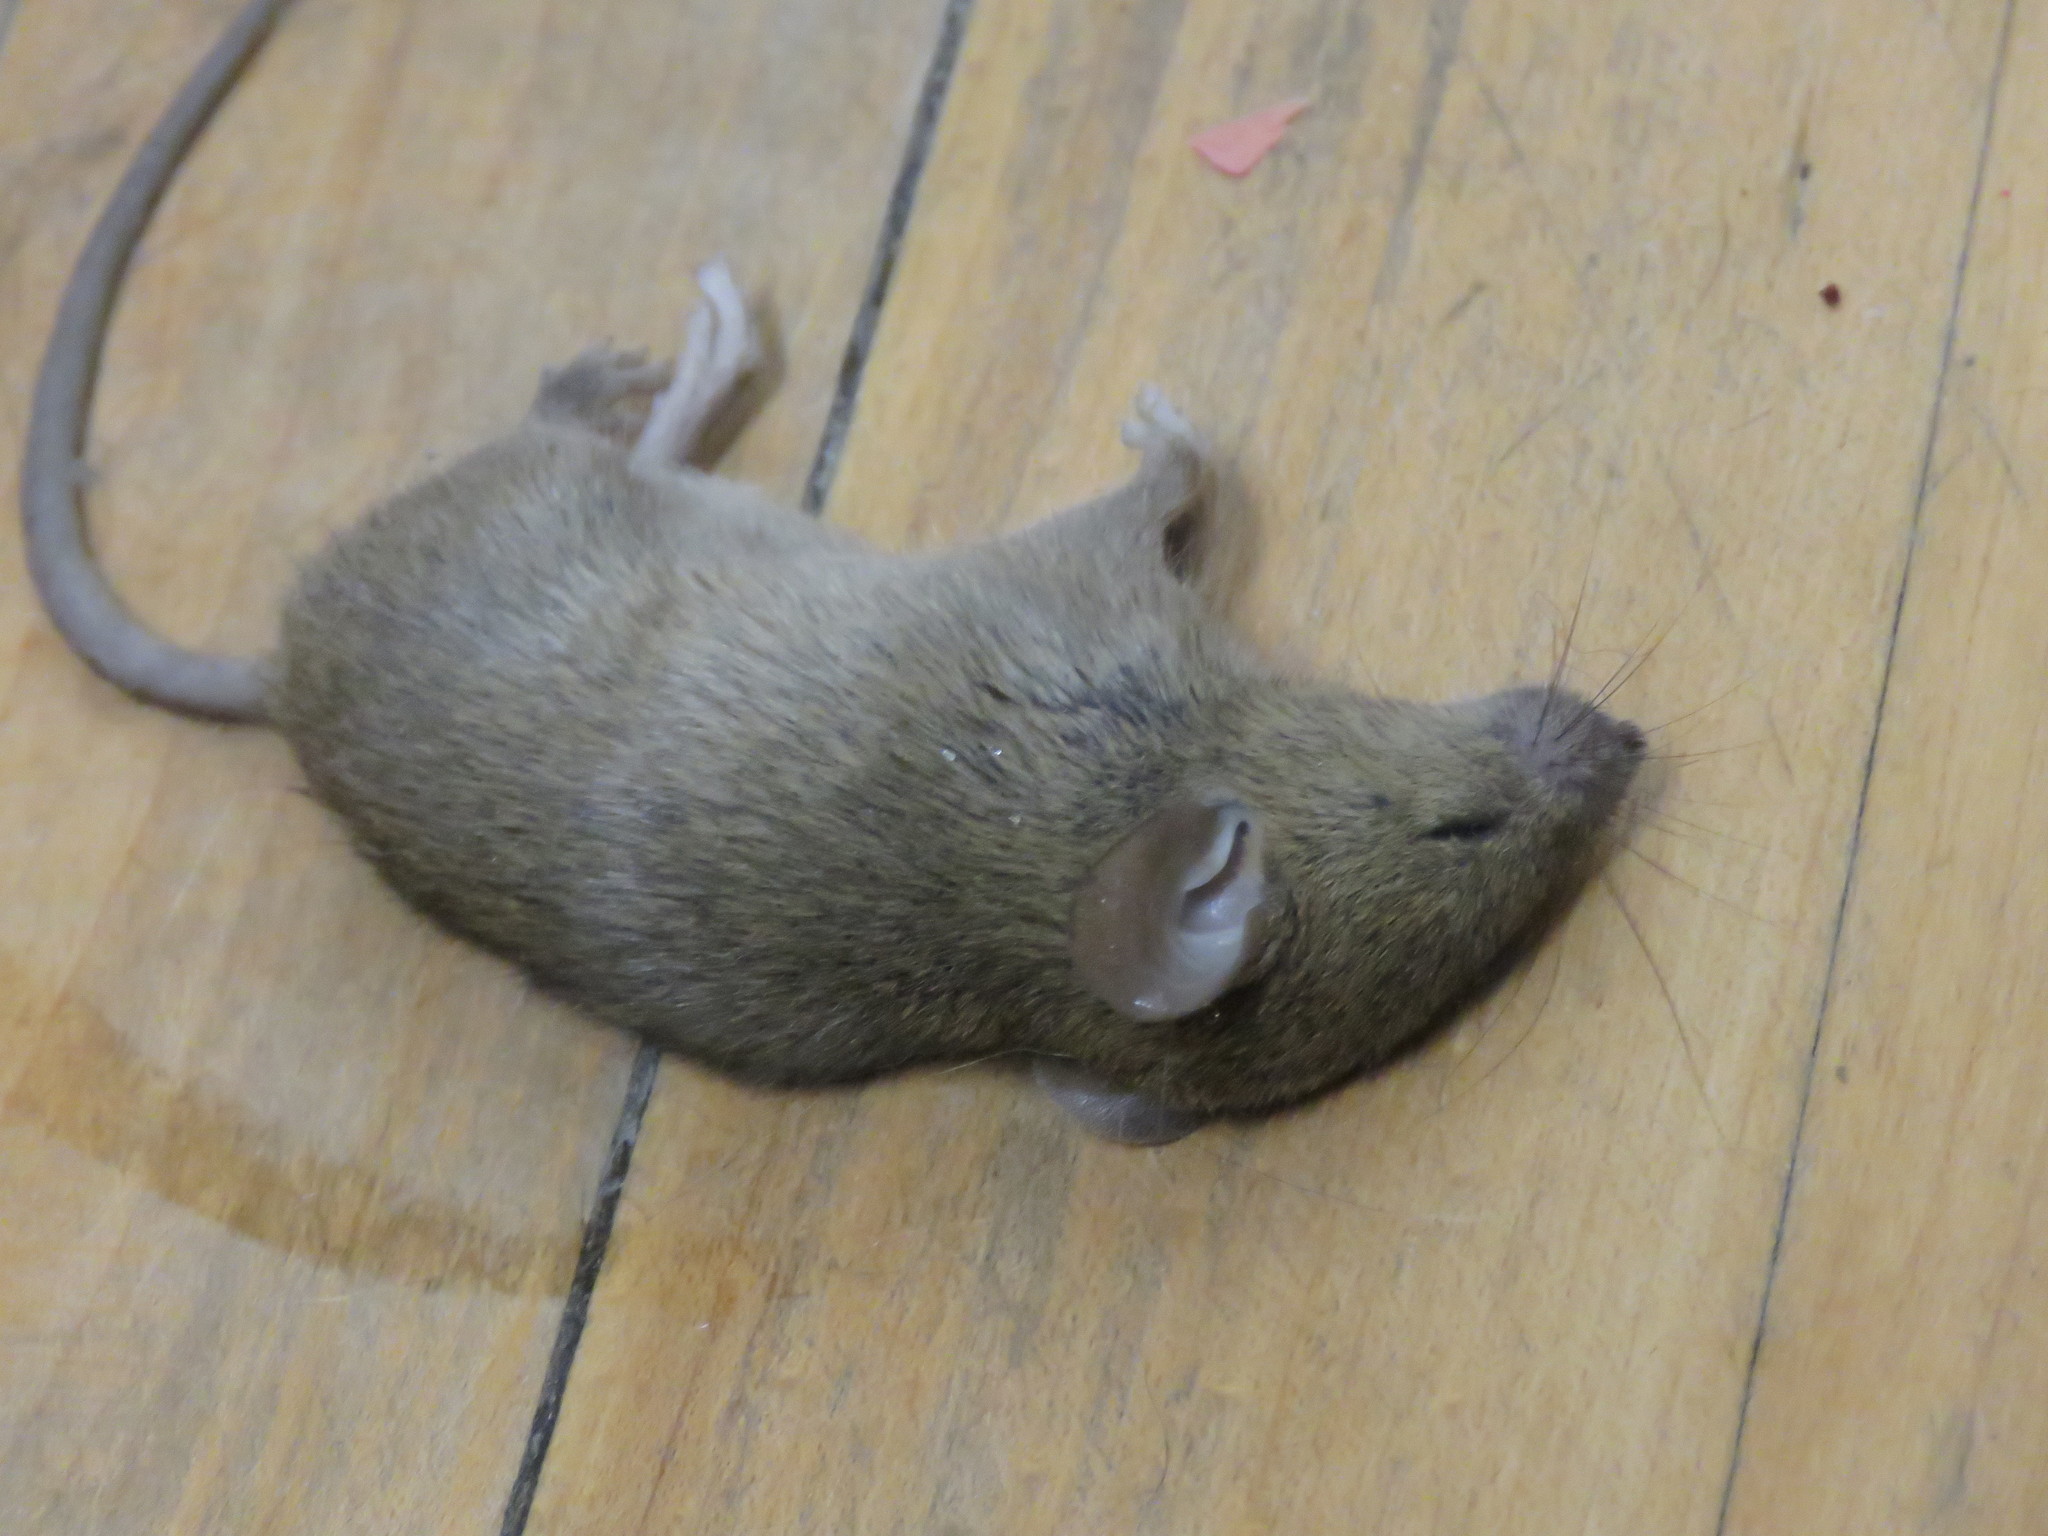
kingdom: Animalia
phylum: Chordata
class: Mammalia
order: Rodentia
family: Muridae
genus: Mus
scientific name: Mus musculus
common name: House mouse
